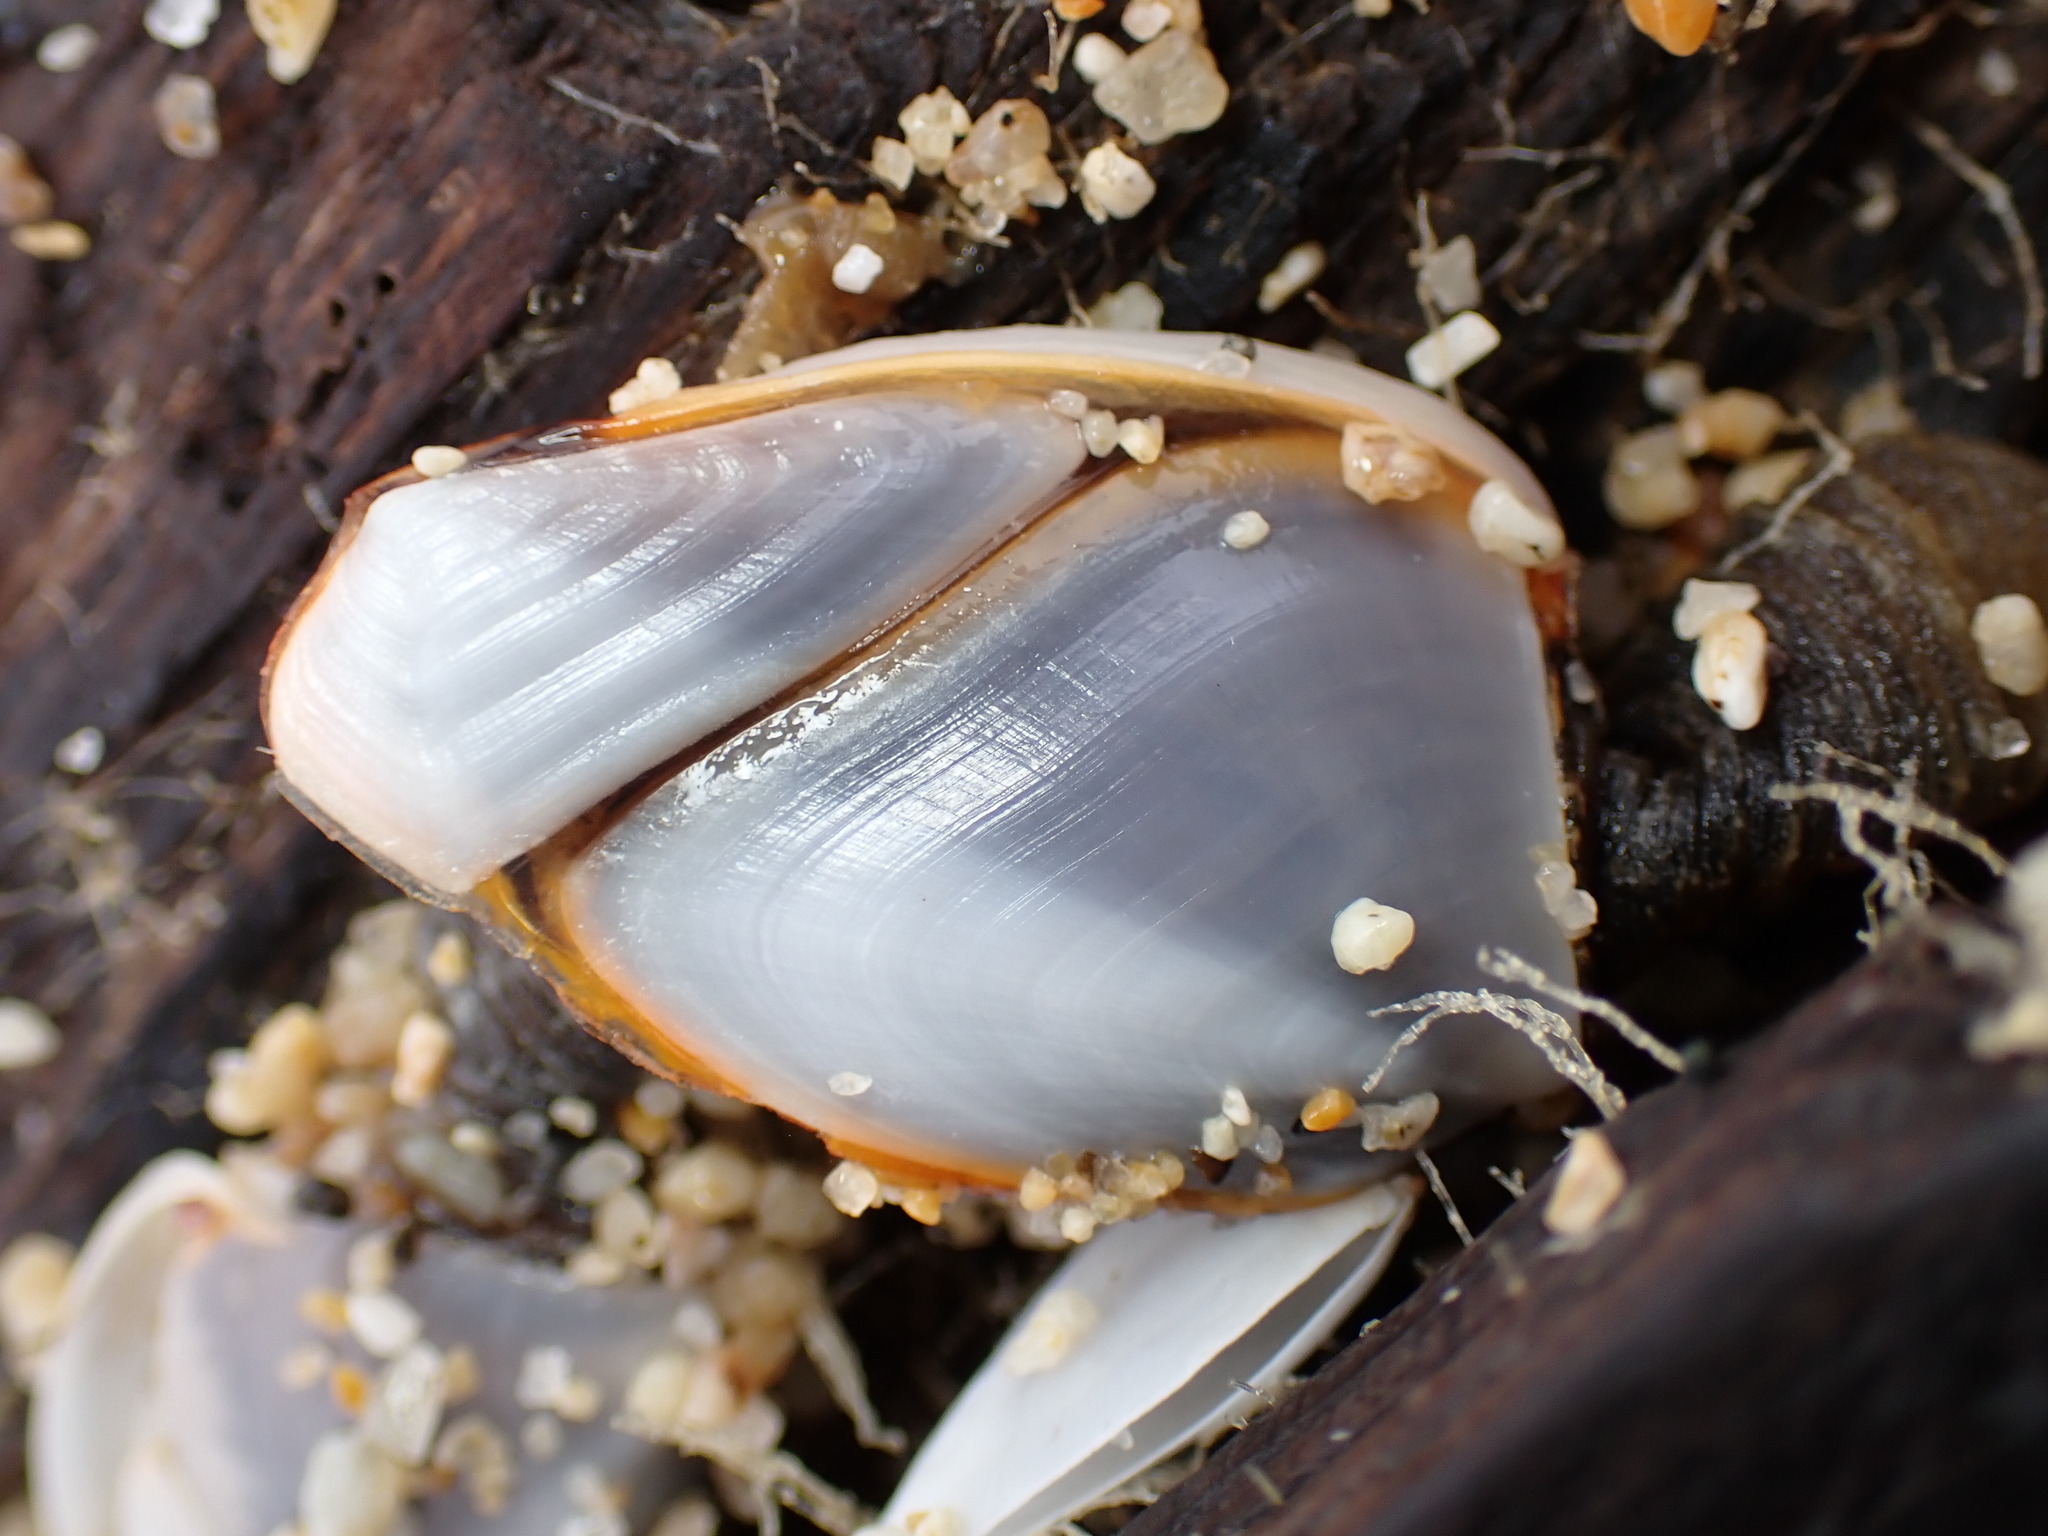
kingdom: Animalia
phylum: Arthropoda
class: Maxillopoda
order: Pedunculata
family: Lepadidae
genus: Lepas
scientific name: Lepas anatifera
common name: Common goose barnacle
